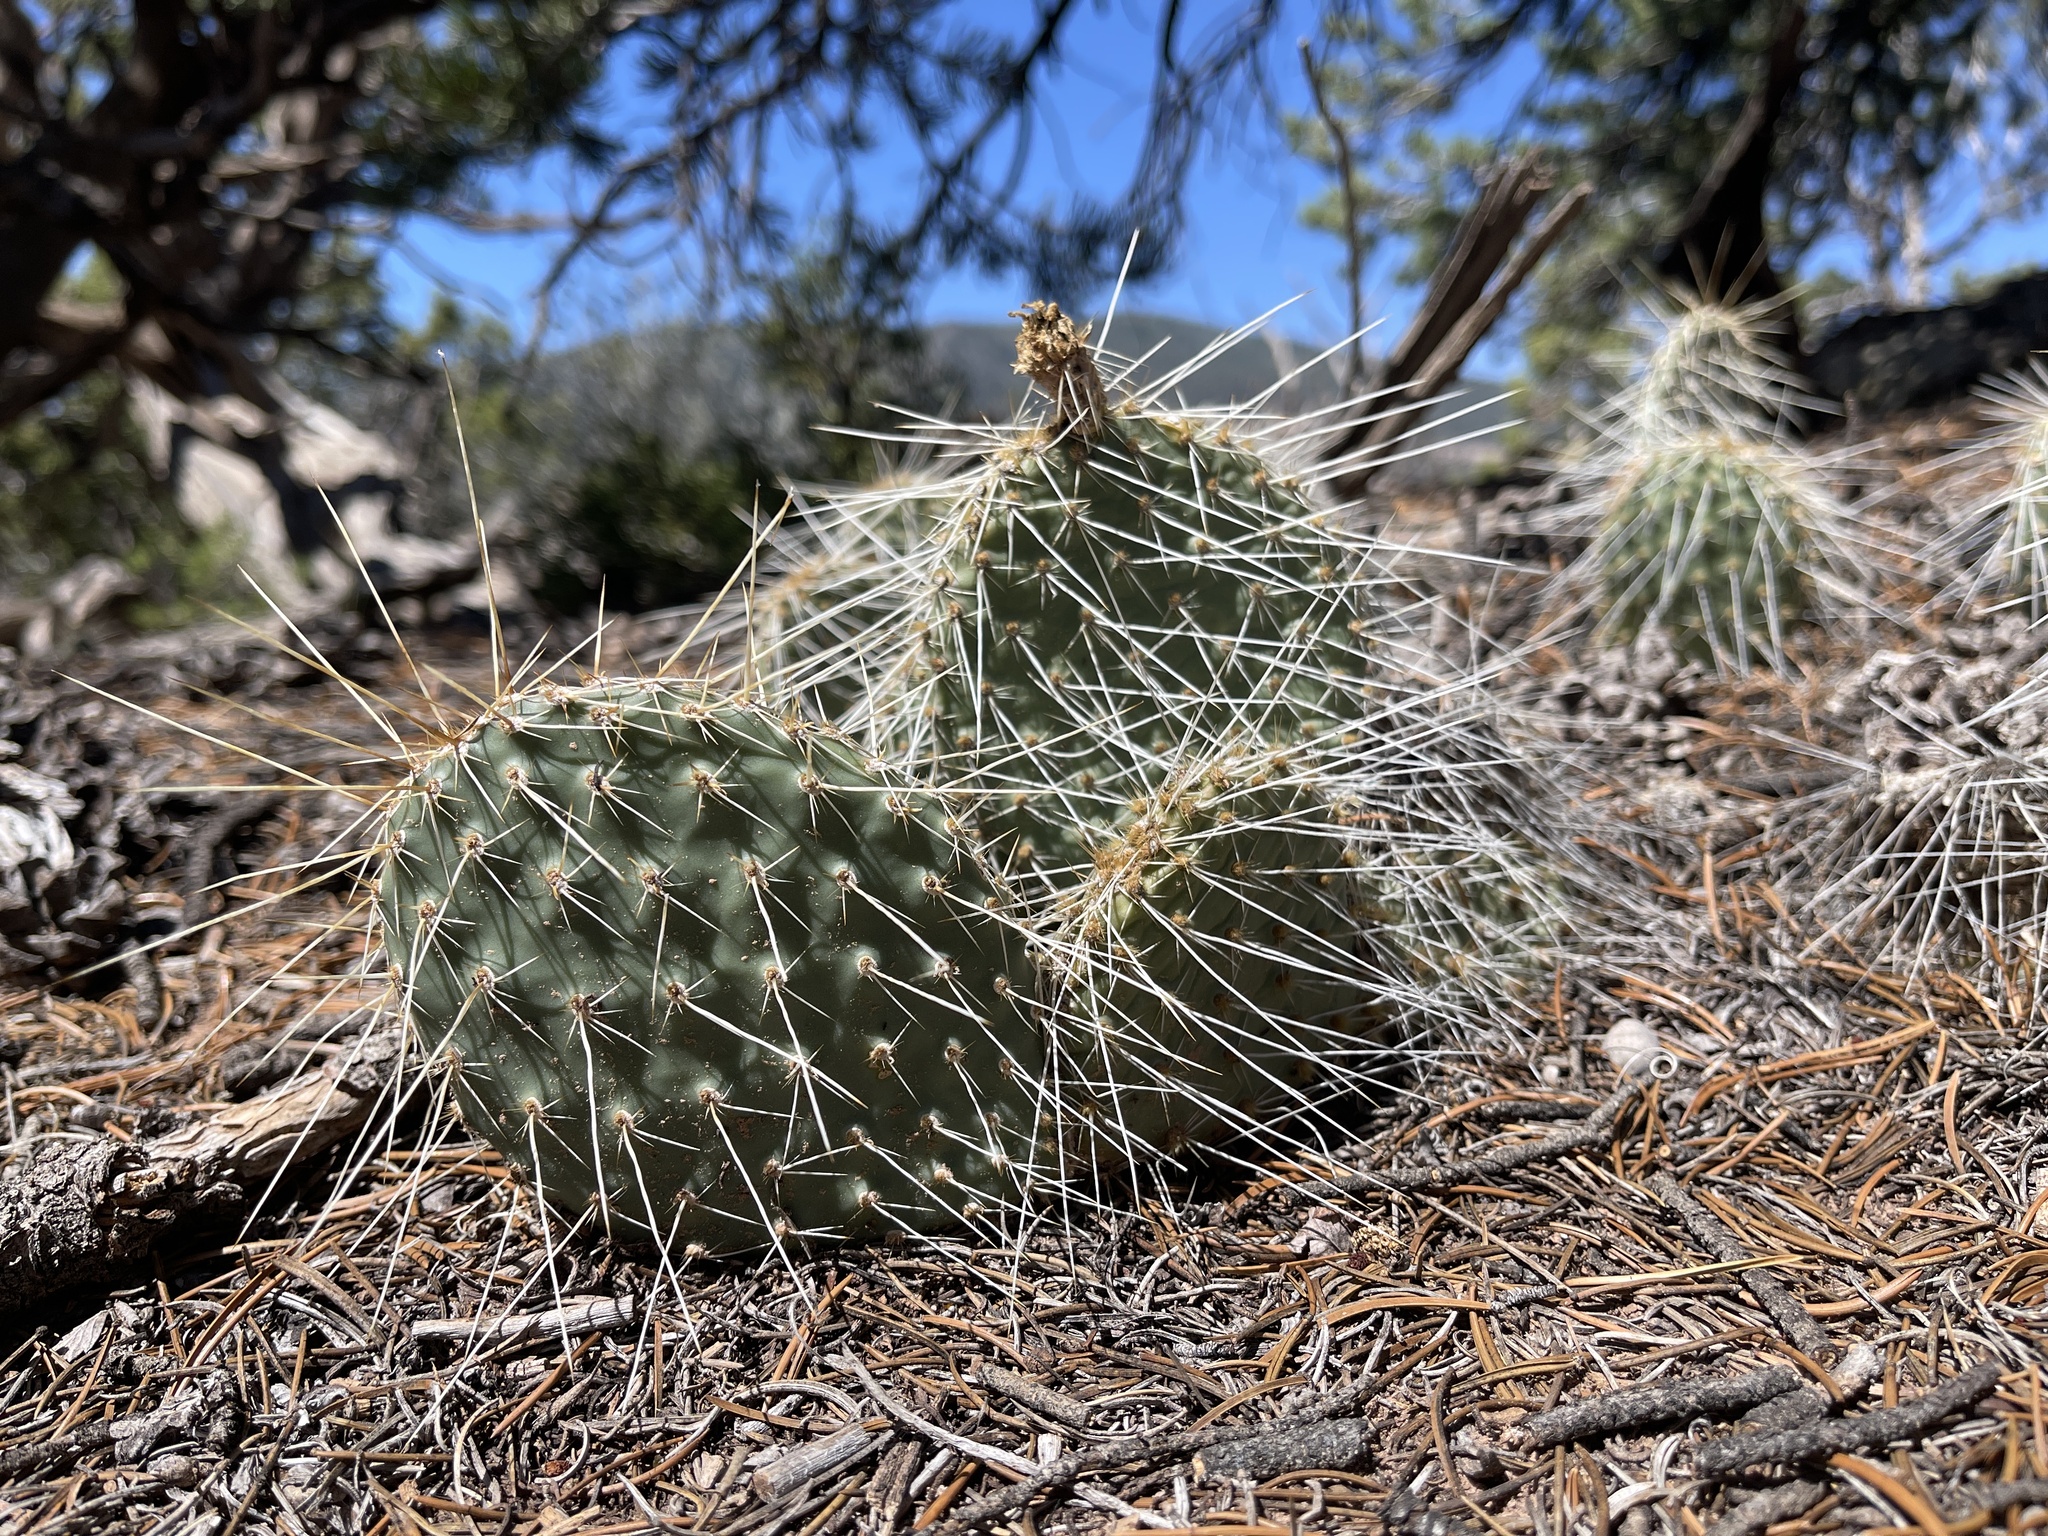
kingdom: Plantae
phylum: Tracheophyta
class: Magnoliopsida
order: Caryophyllales
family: Cactaceae
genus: Opuntia
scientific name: Opuntia polyacantha
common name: Plains prickly-pear
